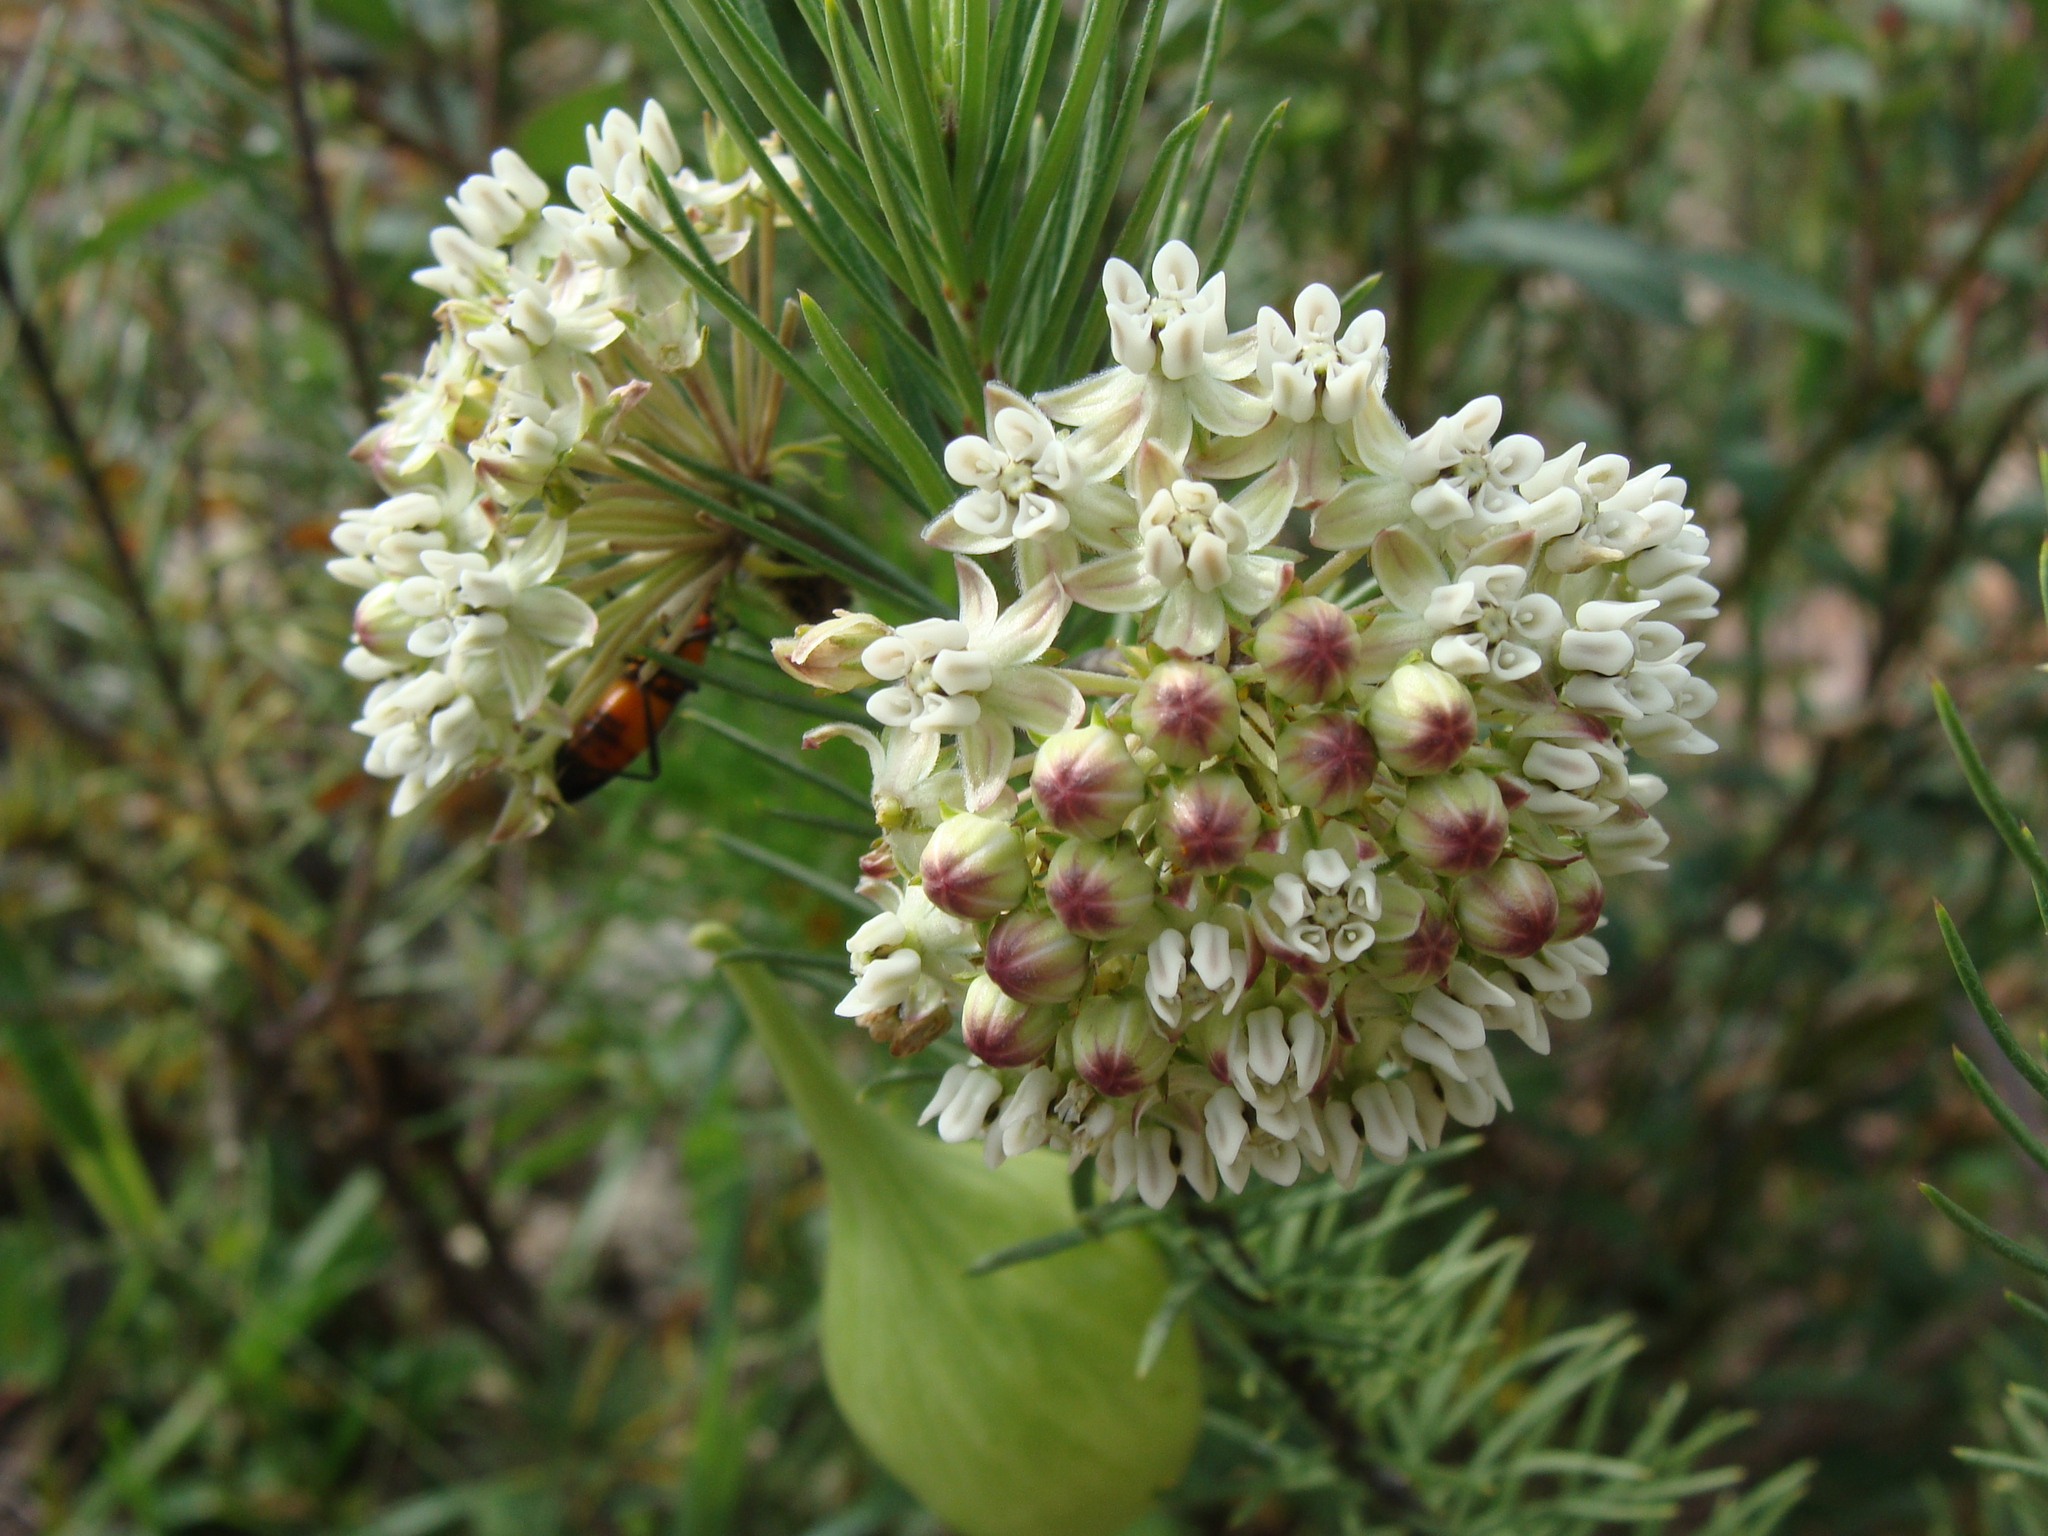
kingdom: Plantae
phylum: Tracheophyta
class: Magnoliopsida
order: Gentianales
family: Apocynaceae
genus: Asclepias
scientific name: Asclepias linaria
